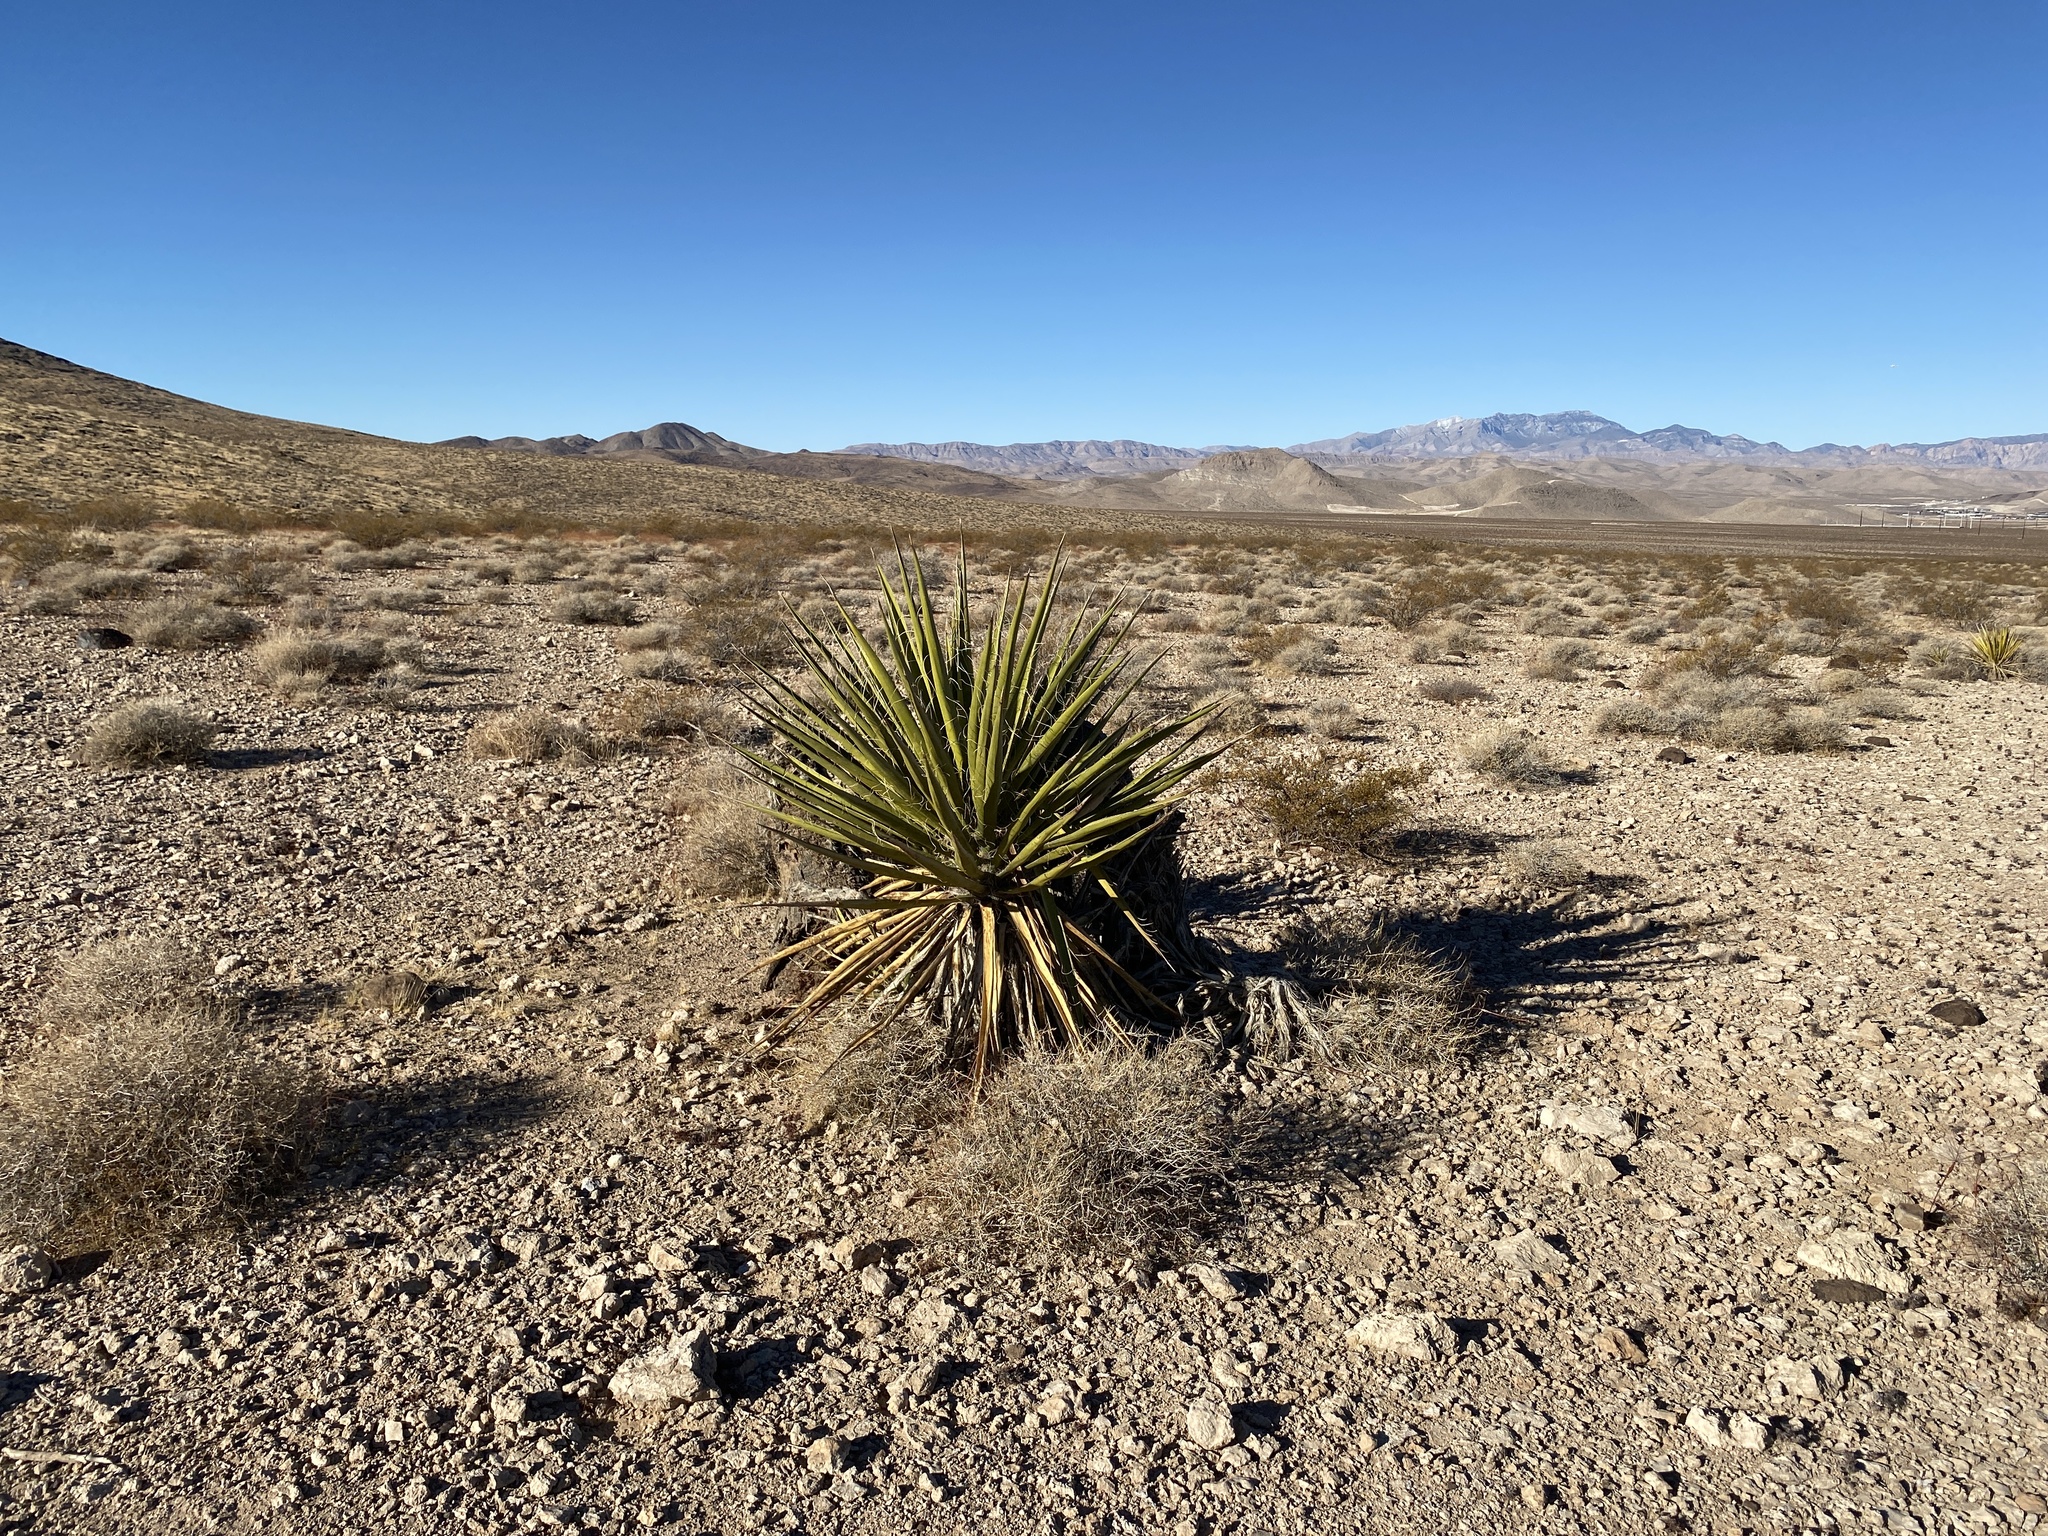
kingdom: Plantae
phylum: Tracheophyta
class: Liliopsida
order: Asparagales
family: Asparagaceae
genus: Yucca
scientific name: Yucca schidigera
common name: Mojave yucca
